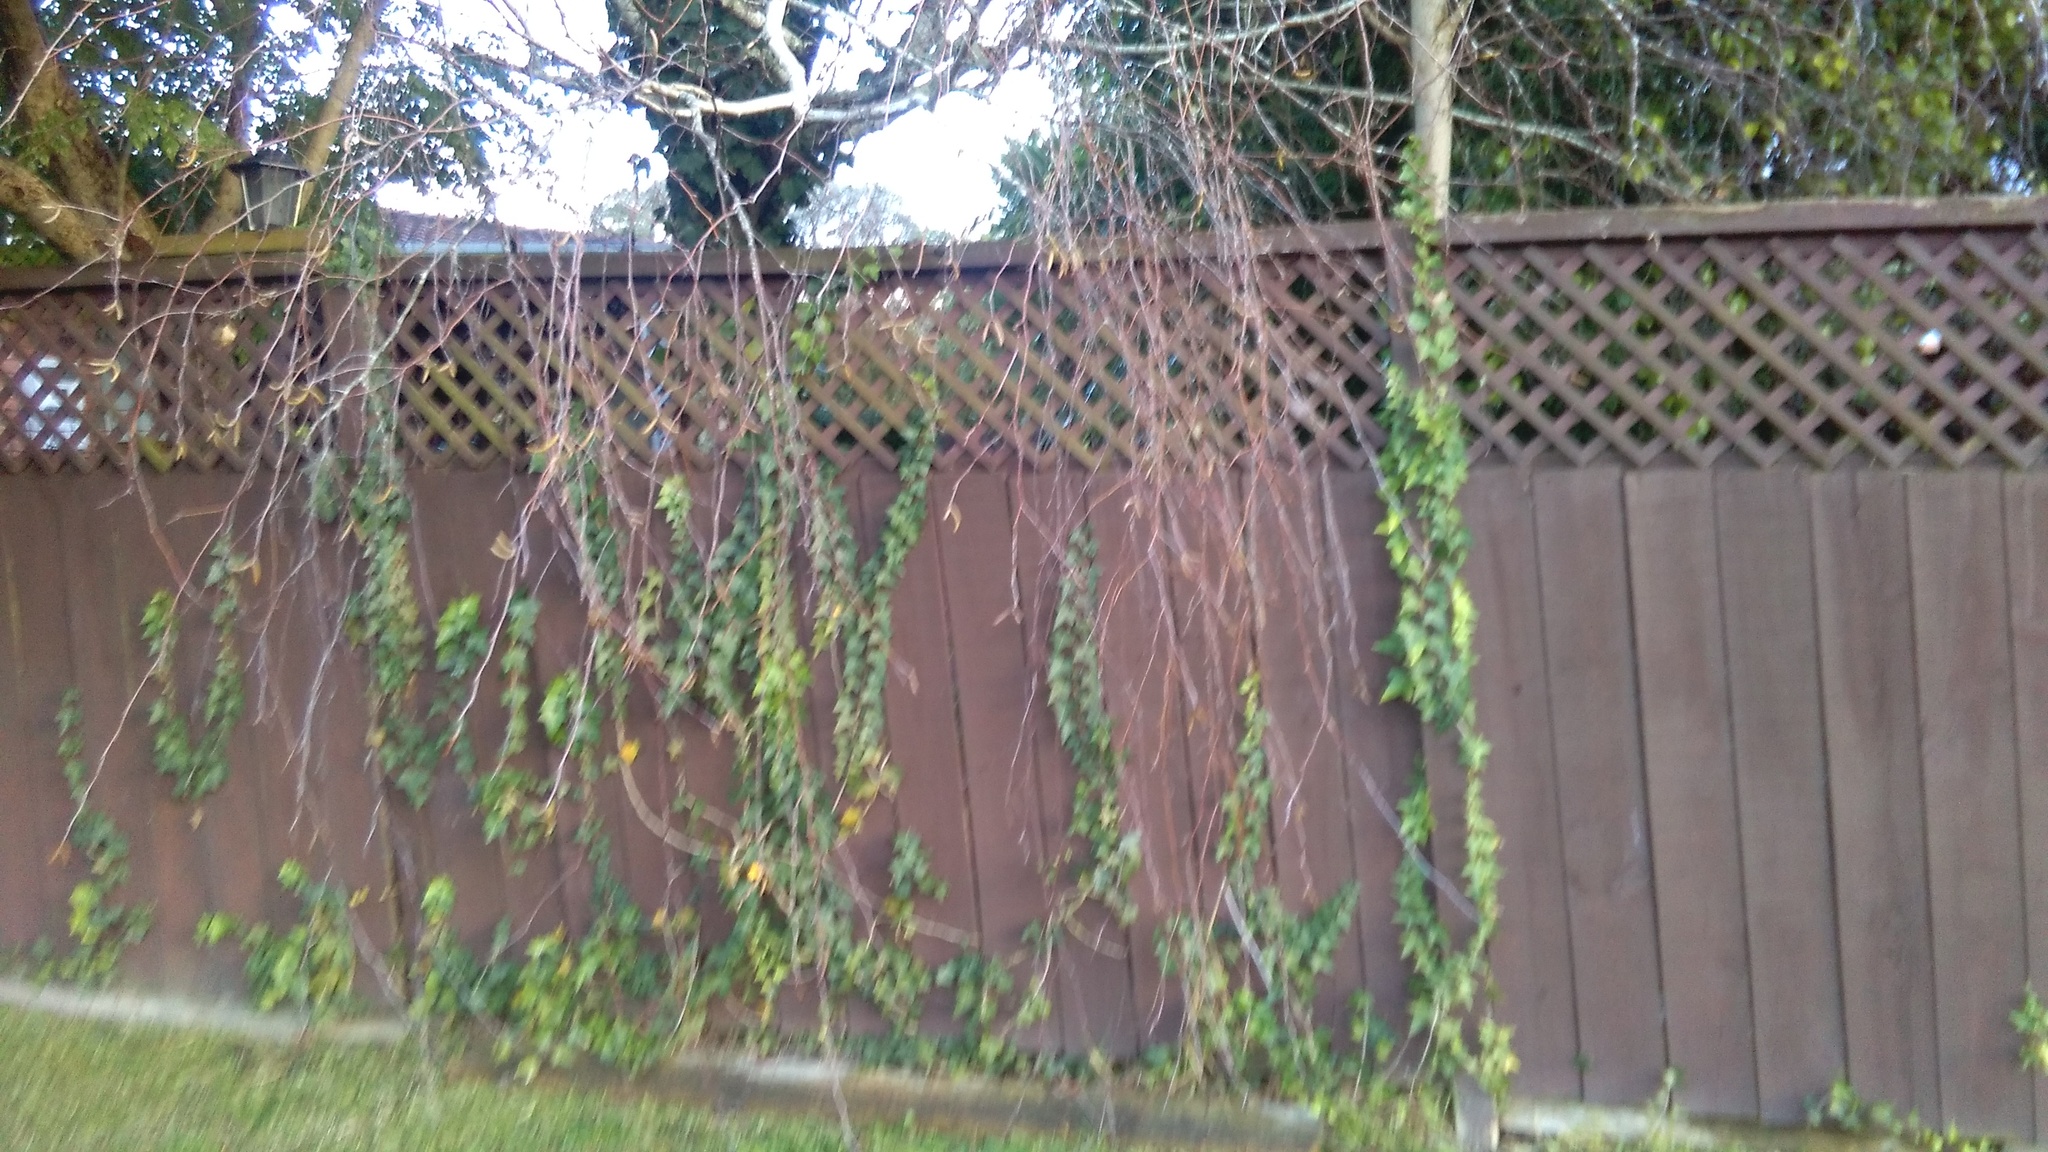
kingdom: Plantae
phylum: Tracheophyta
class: Magnoliopsida
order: Apiales
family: Araliaceae
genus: Hedera
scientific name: Hedera helix
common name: Ivy
